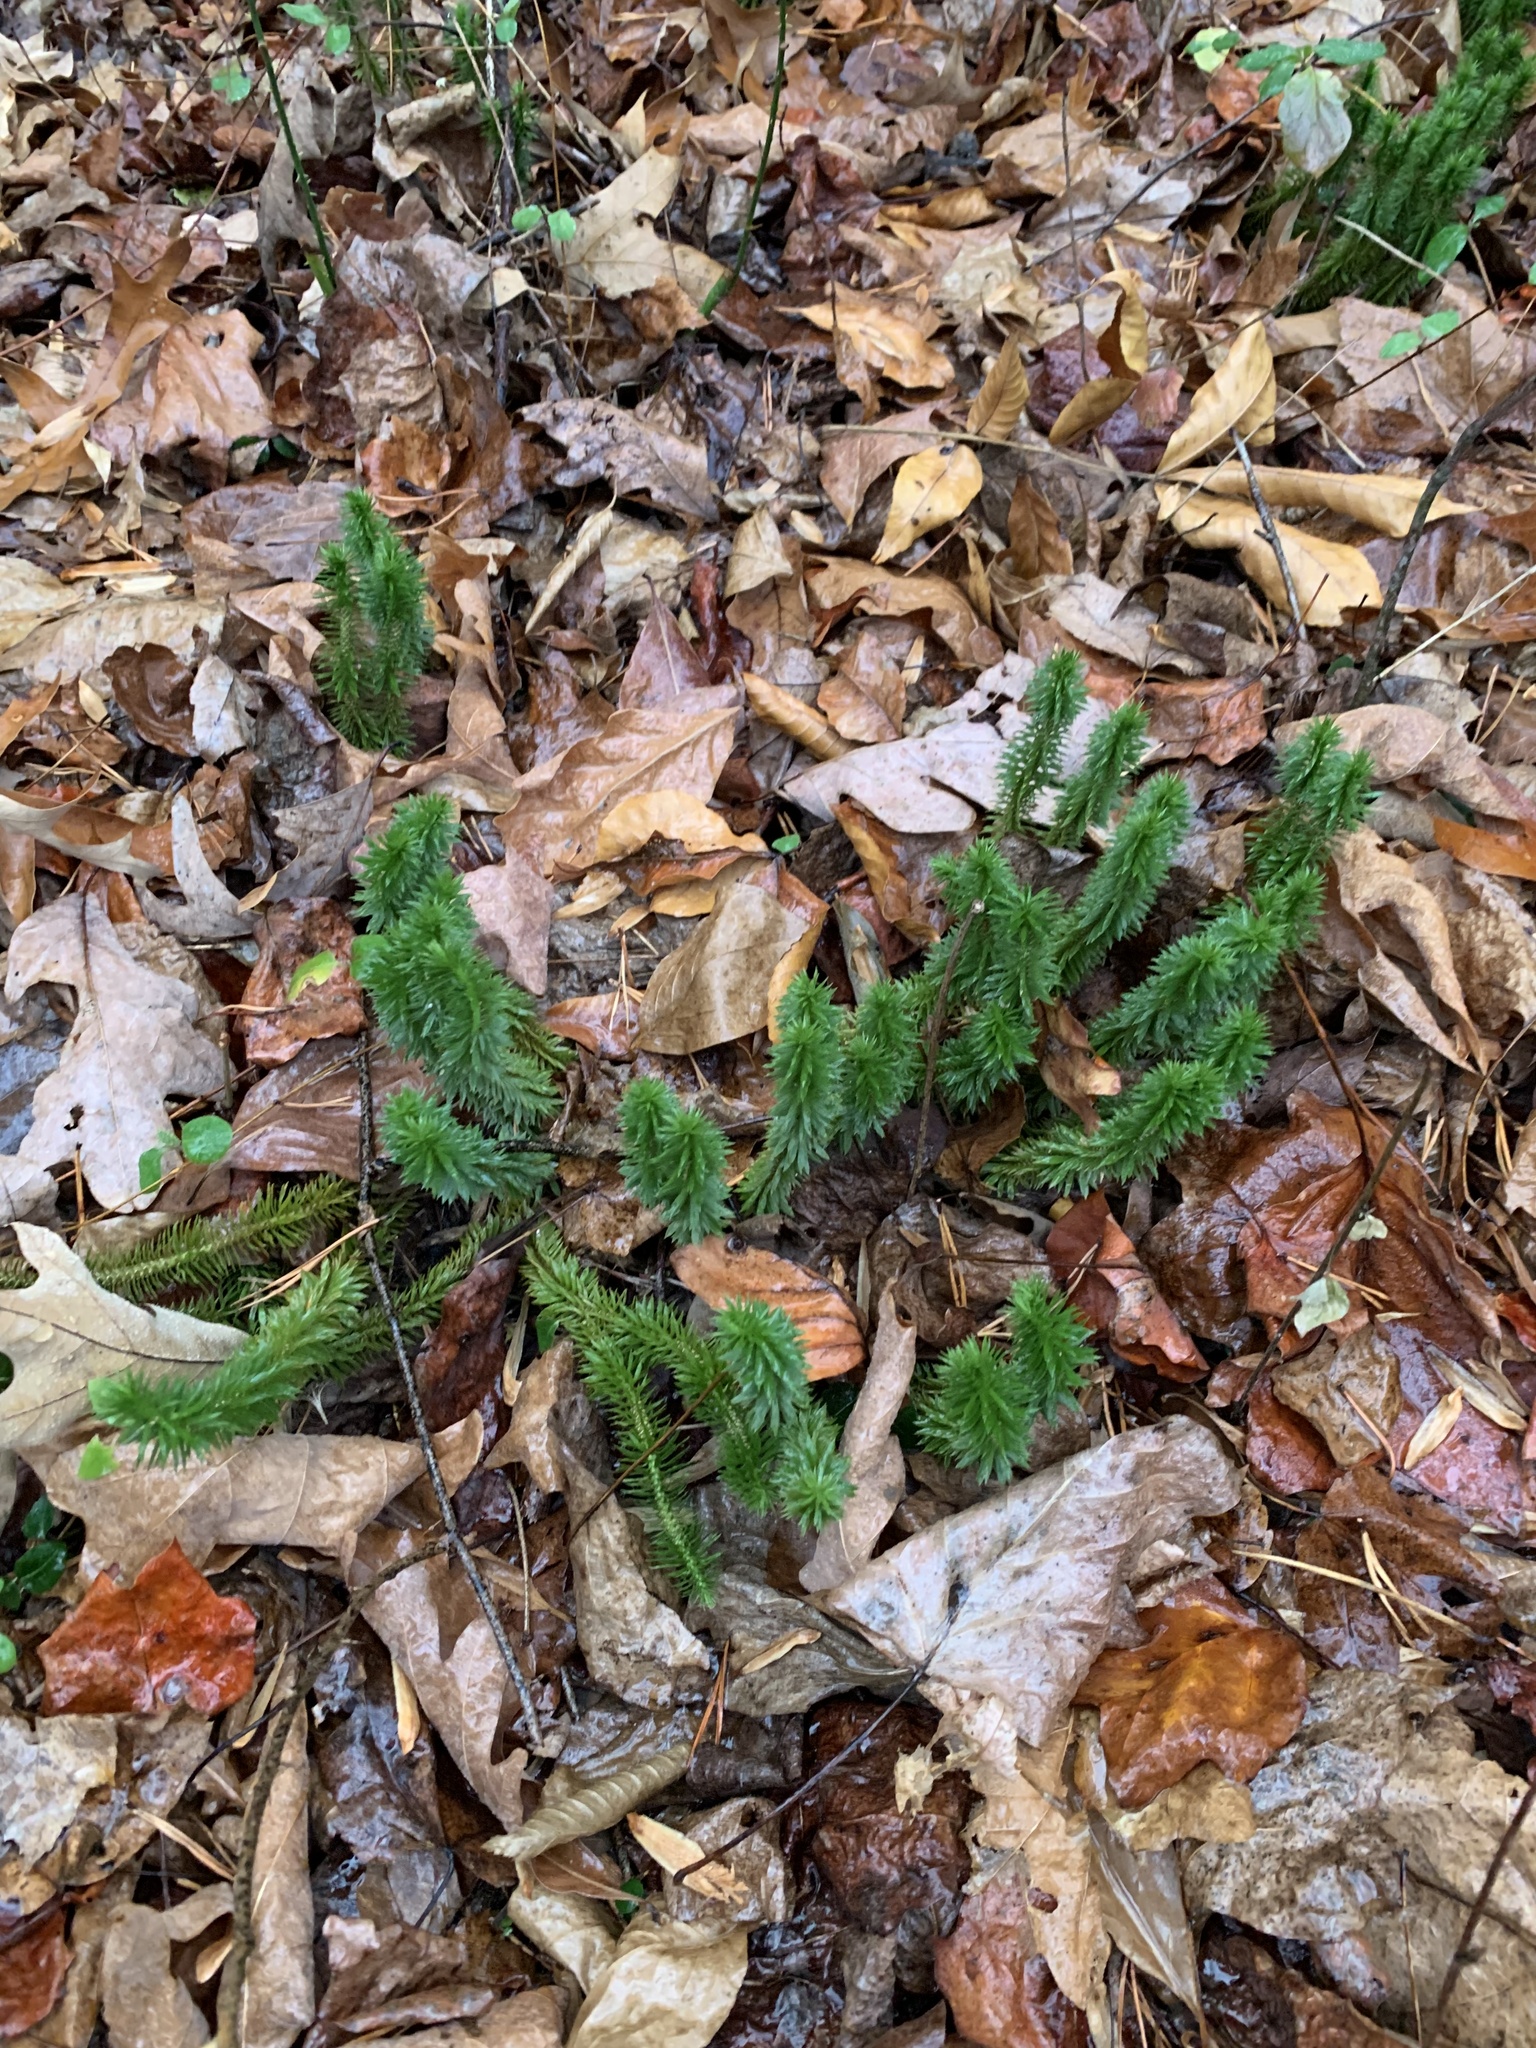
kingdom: Plantae
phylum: Tracheophyta
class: Lycopodiopsida
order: Lycopodiales
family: Lycopodiaceae
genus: Huperzia
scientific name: Huperzia lucidula
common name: Shining clubmoss
